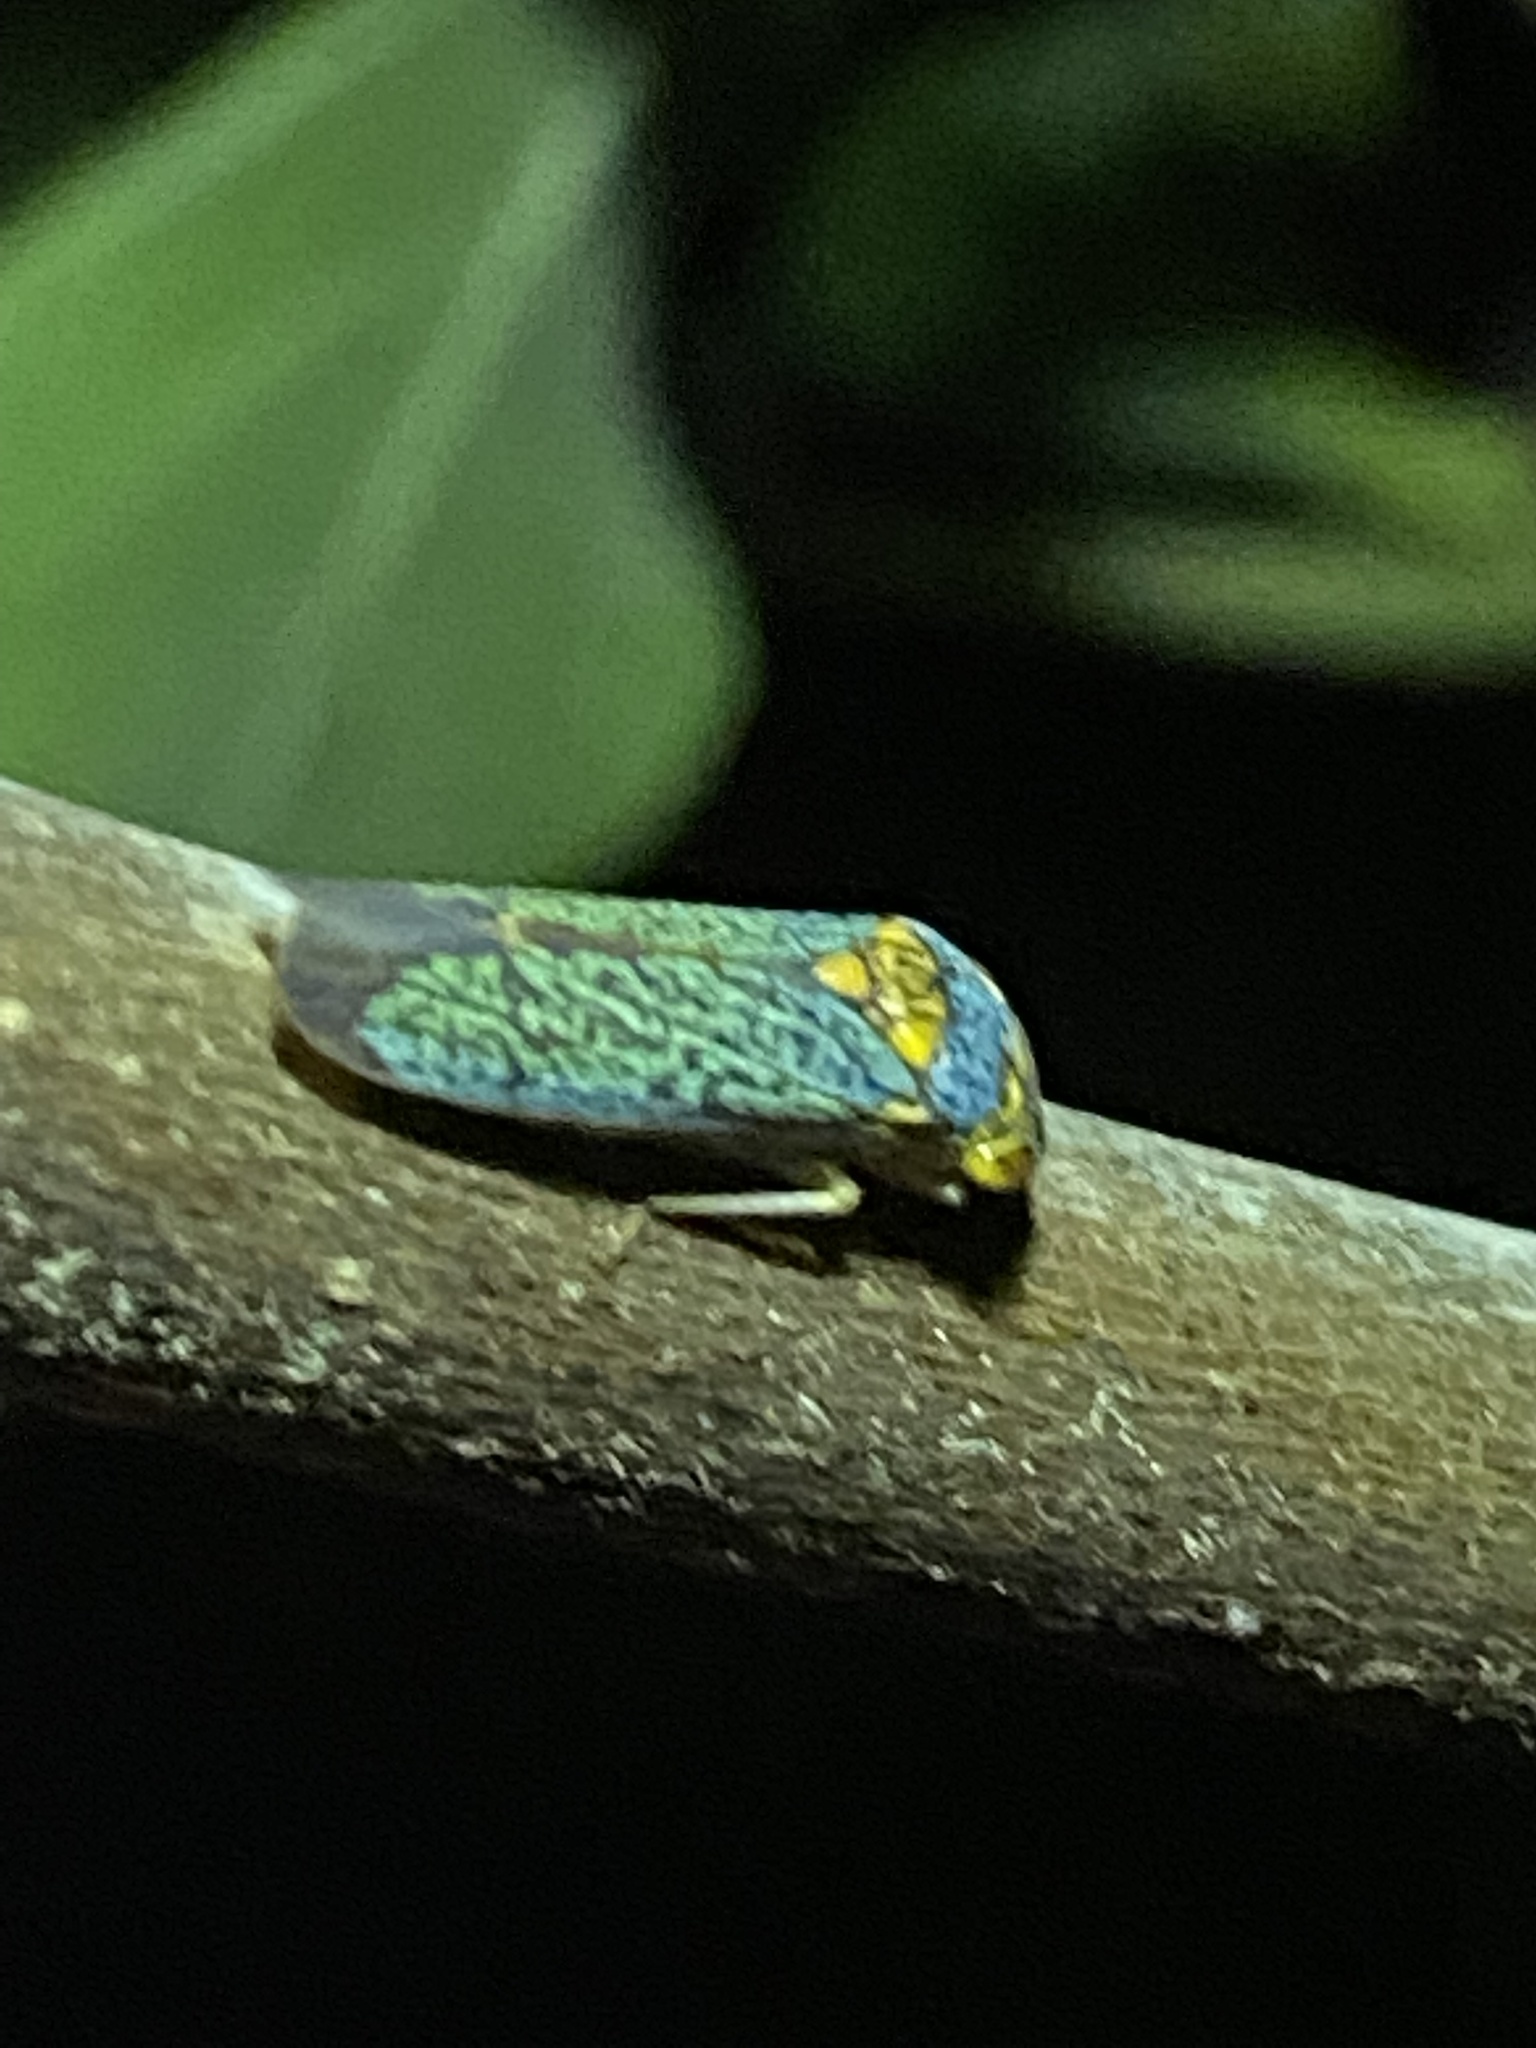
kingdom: Animalia
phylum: Arthropoda
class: Insecta
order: Hemiptera
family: Cicadellidae
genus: Oncometopia
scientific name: Oncometopia orbona
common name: Broad-headed sharpshooter
